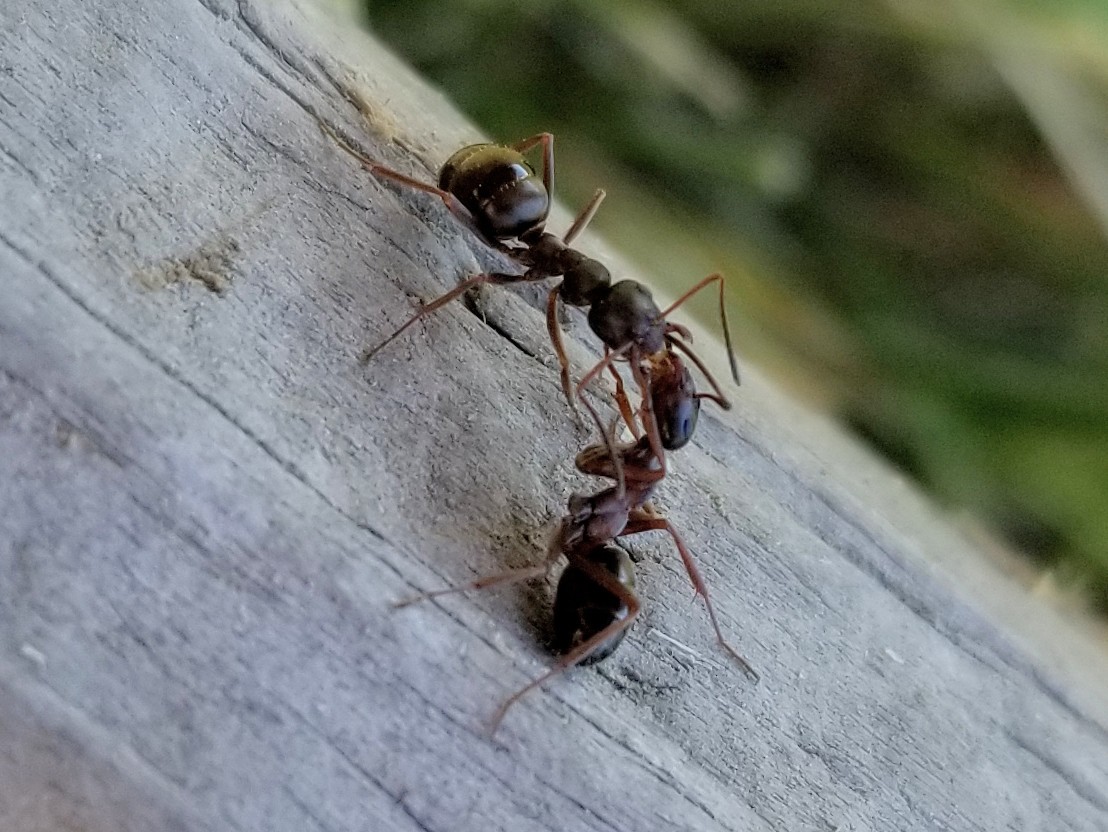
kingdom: Animalia
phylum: Arthropoda
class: Insecta
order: Hymenoptera
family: Formicidae
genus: Formica
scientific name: Formica neorufibarbis
